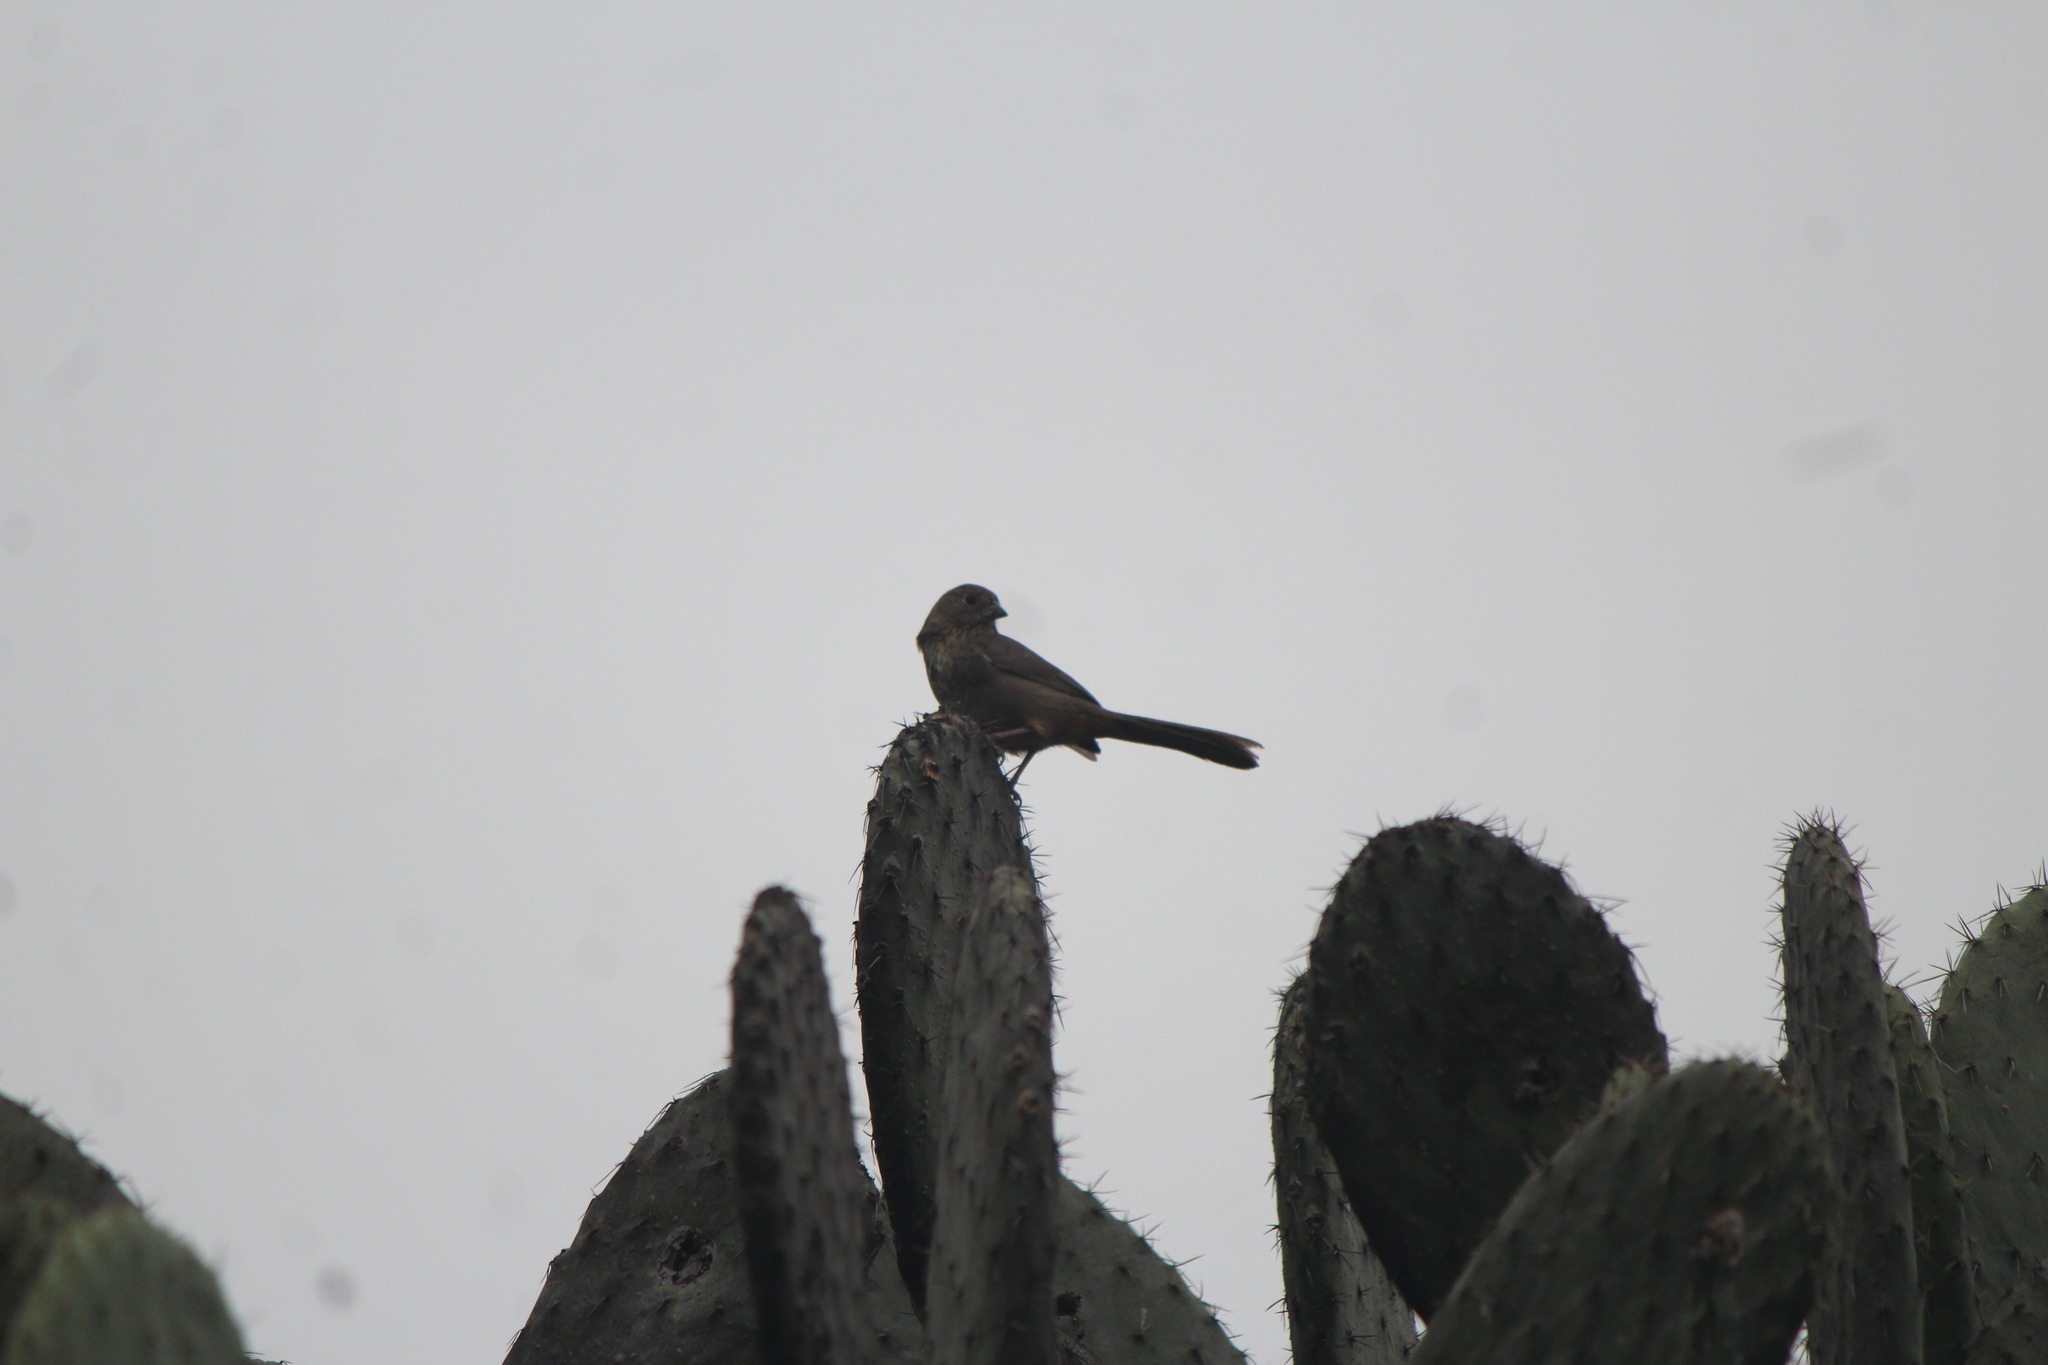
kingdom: Animalia
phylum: Chordata
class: Aves
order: Passeriformes
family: Passerellidae
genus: Melozone
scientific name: Melozone fusca
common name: Canyon towhee
